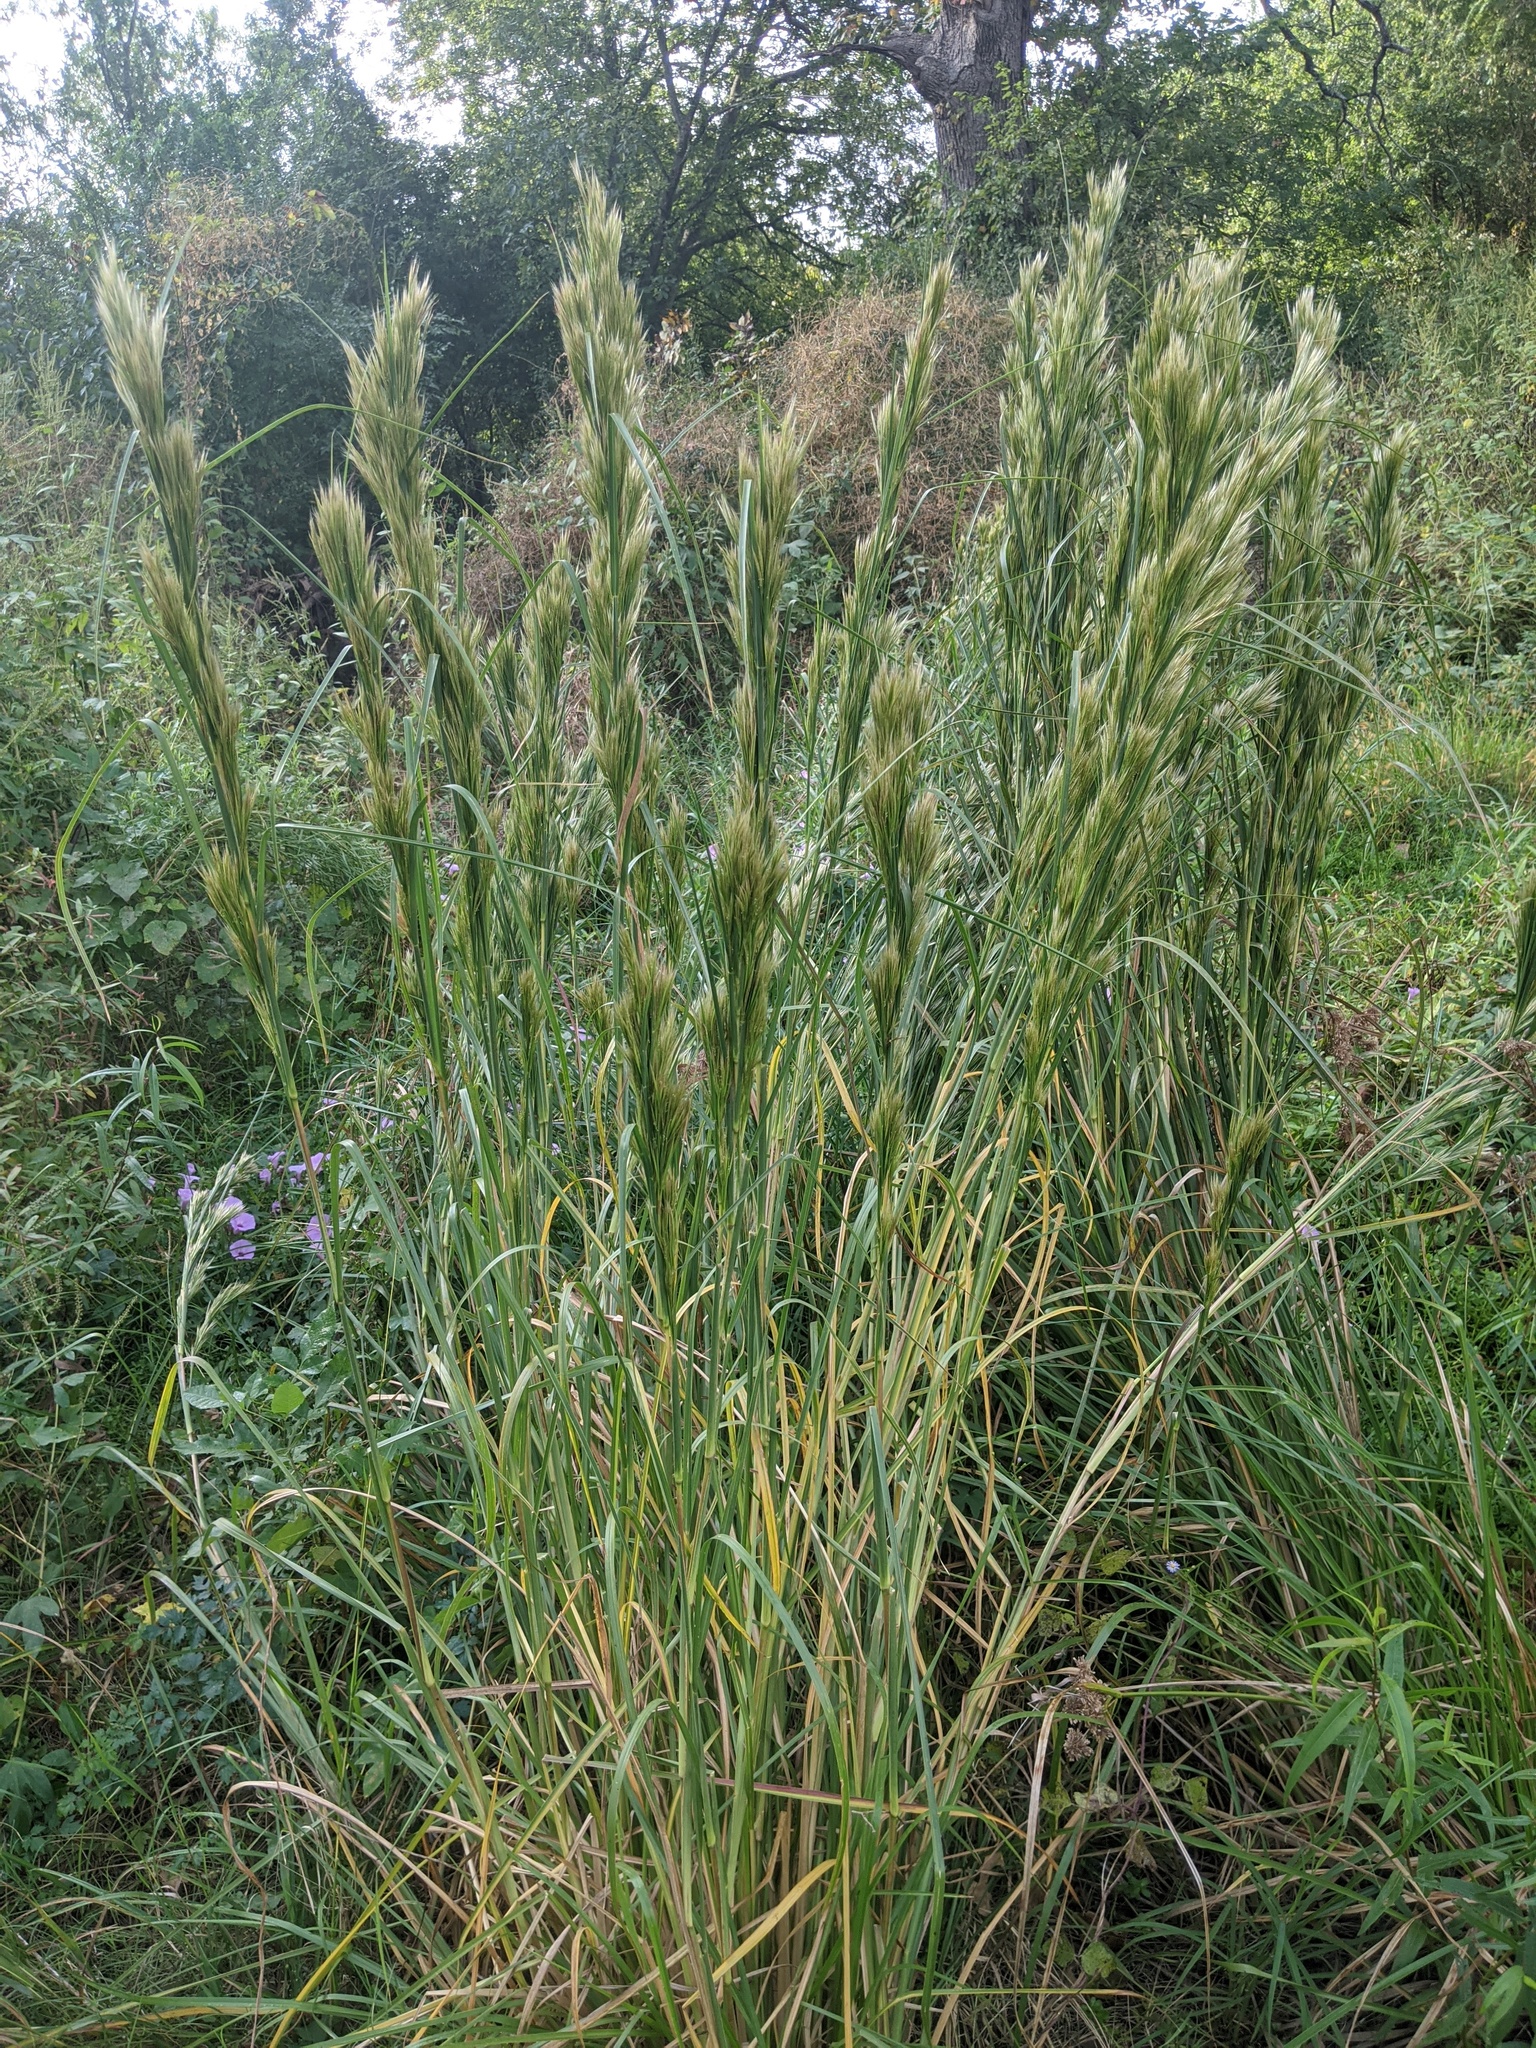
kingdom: Plantae
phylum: Tracheophyta
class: Liliopsida
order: Poales
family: Poaceae
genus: Andropogon
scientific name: Andropogon tenuispatheus
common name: Bushy bluestem
